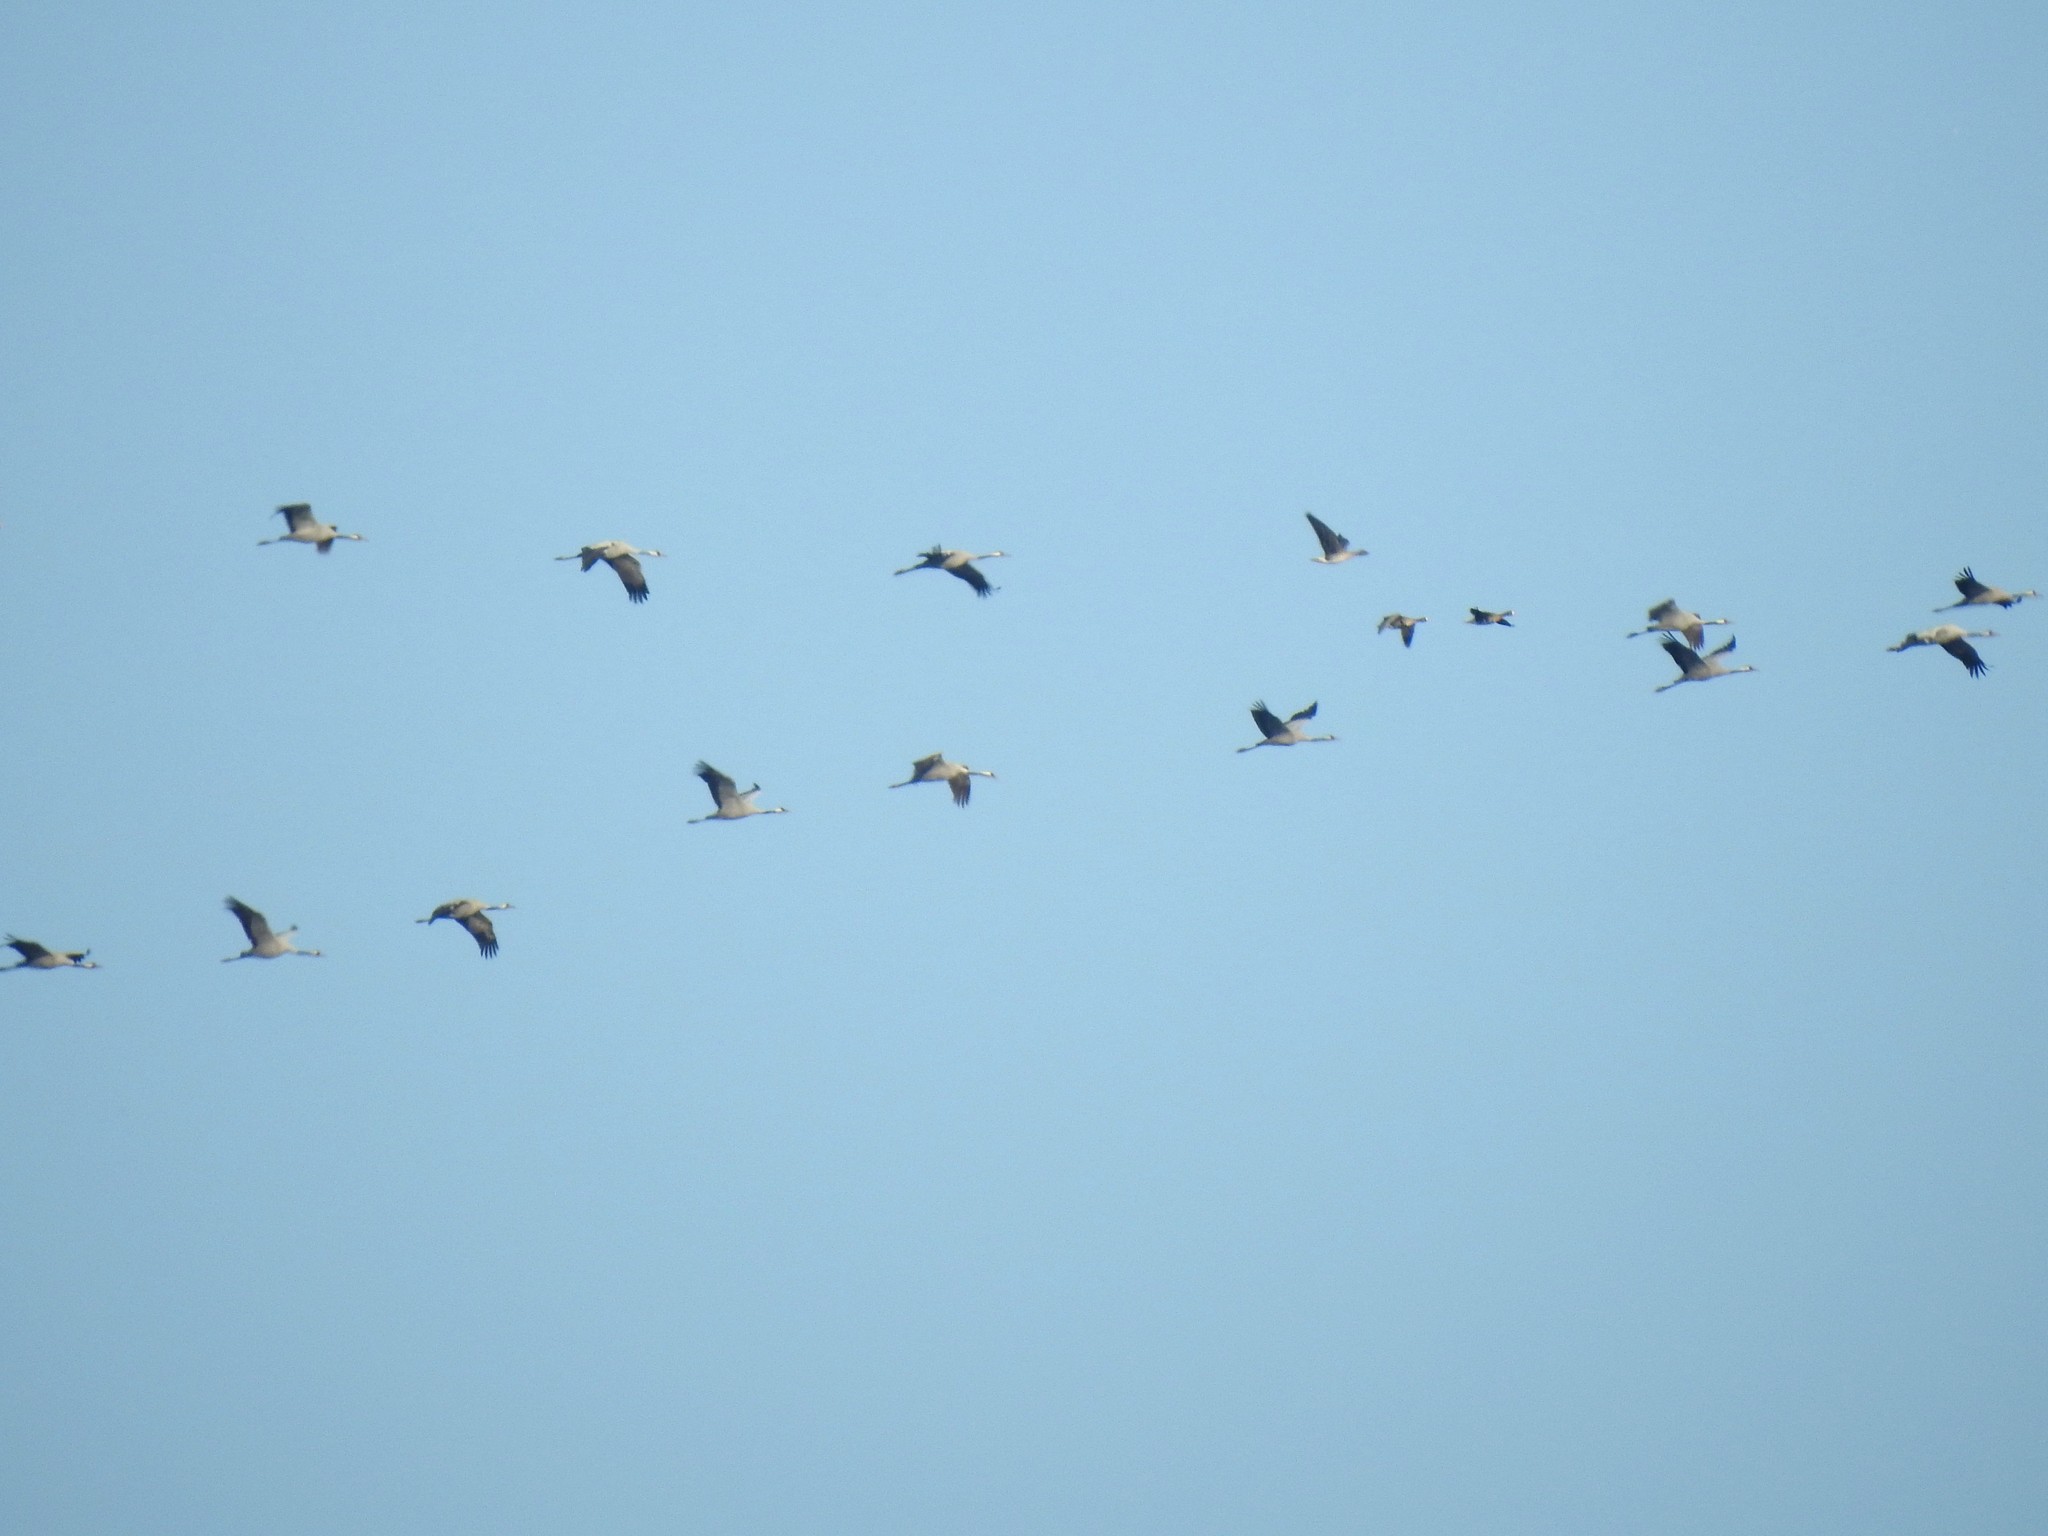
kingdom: Animalia
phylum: Chordata
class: Aves
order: Gruiformes
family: Gruidae
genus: Grus
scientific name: Grus grus
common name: Common crane
